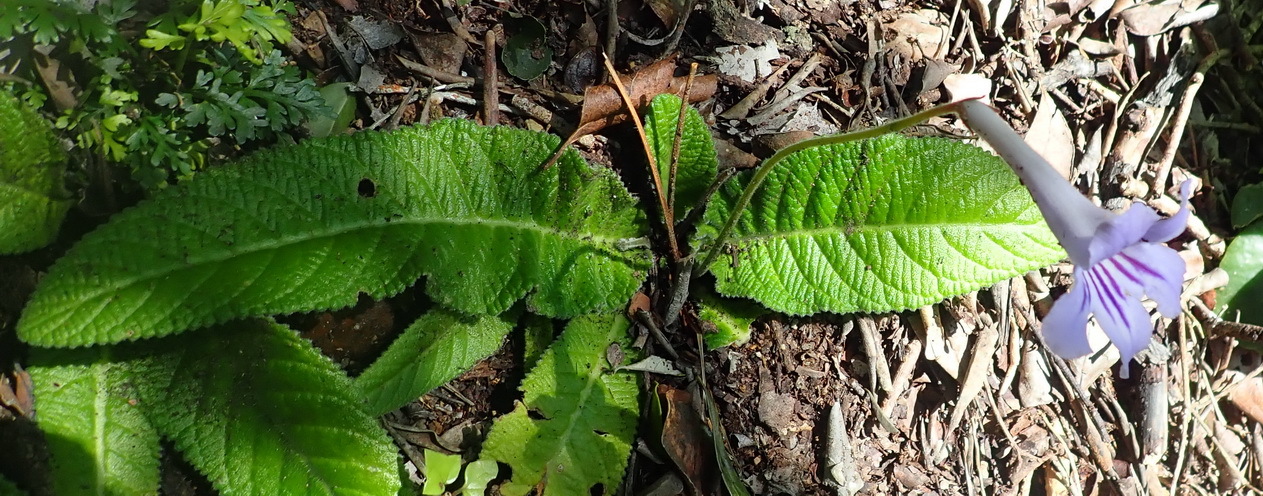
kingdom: Plantae
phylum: Tracheophyta
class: Magnoliopsida
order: Lamiales
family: Gesneriaceae
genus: Streptocarpus
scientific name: Streptocarpus rexii
